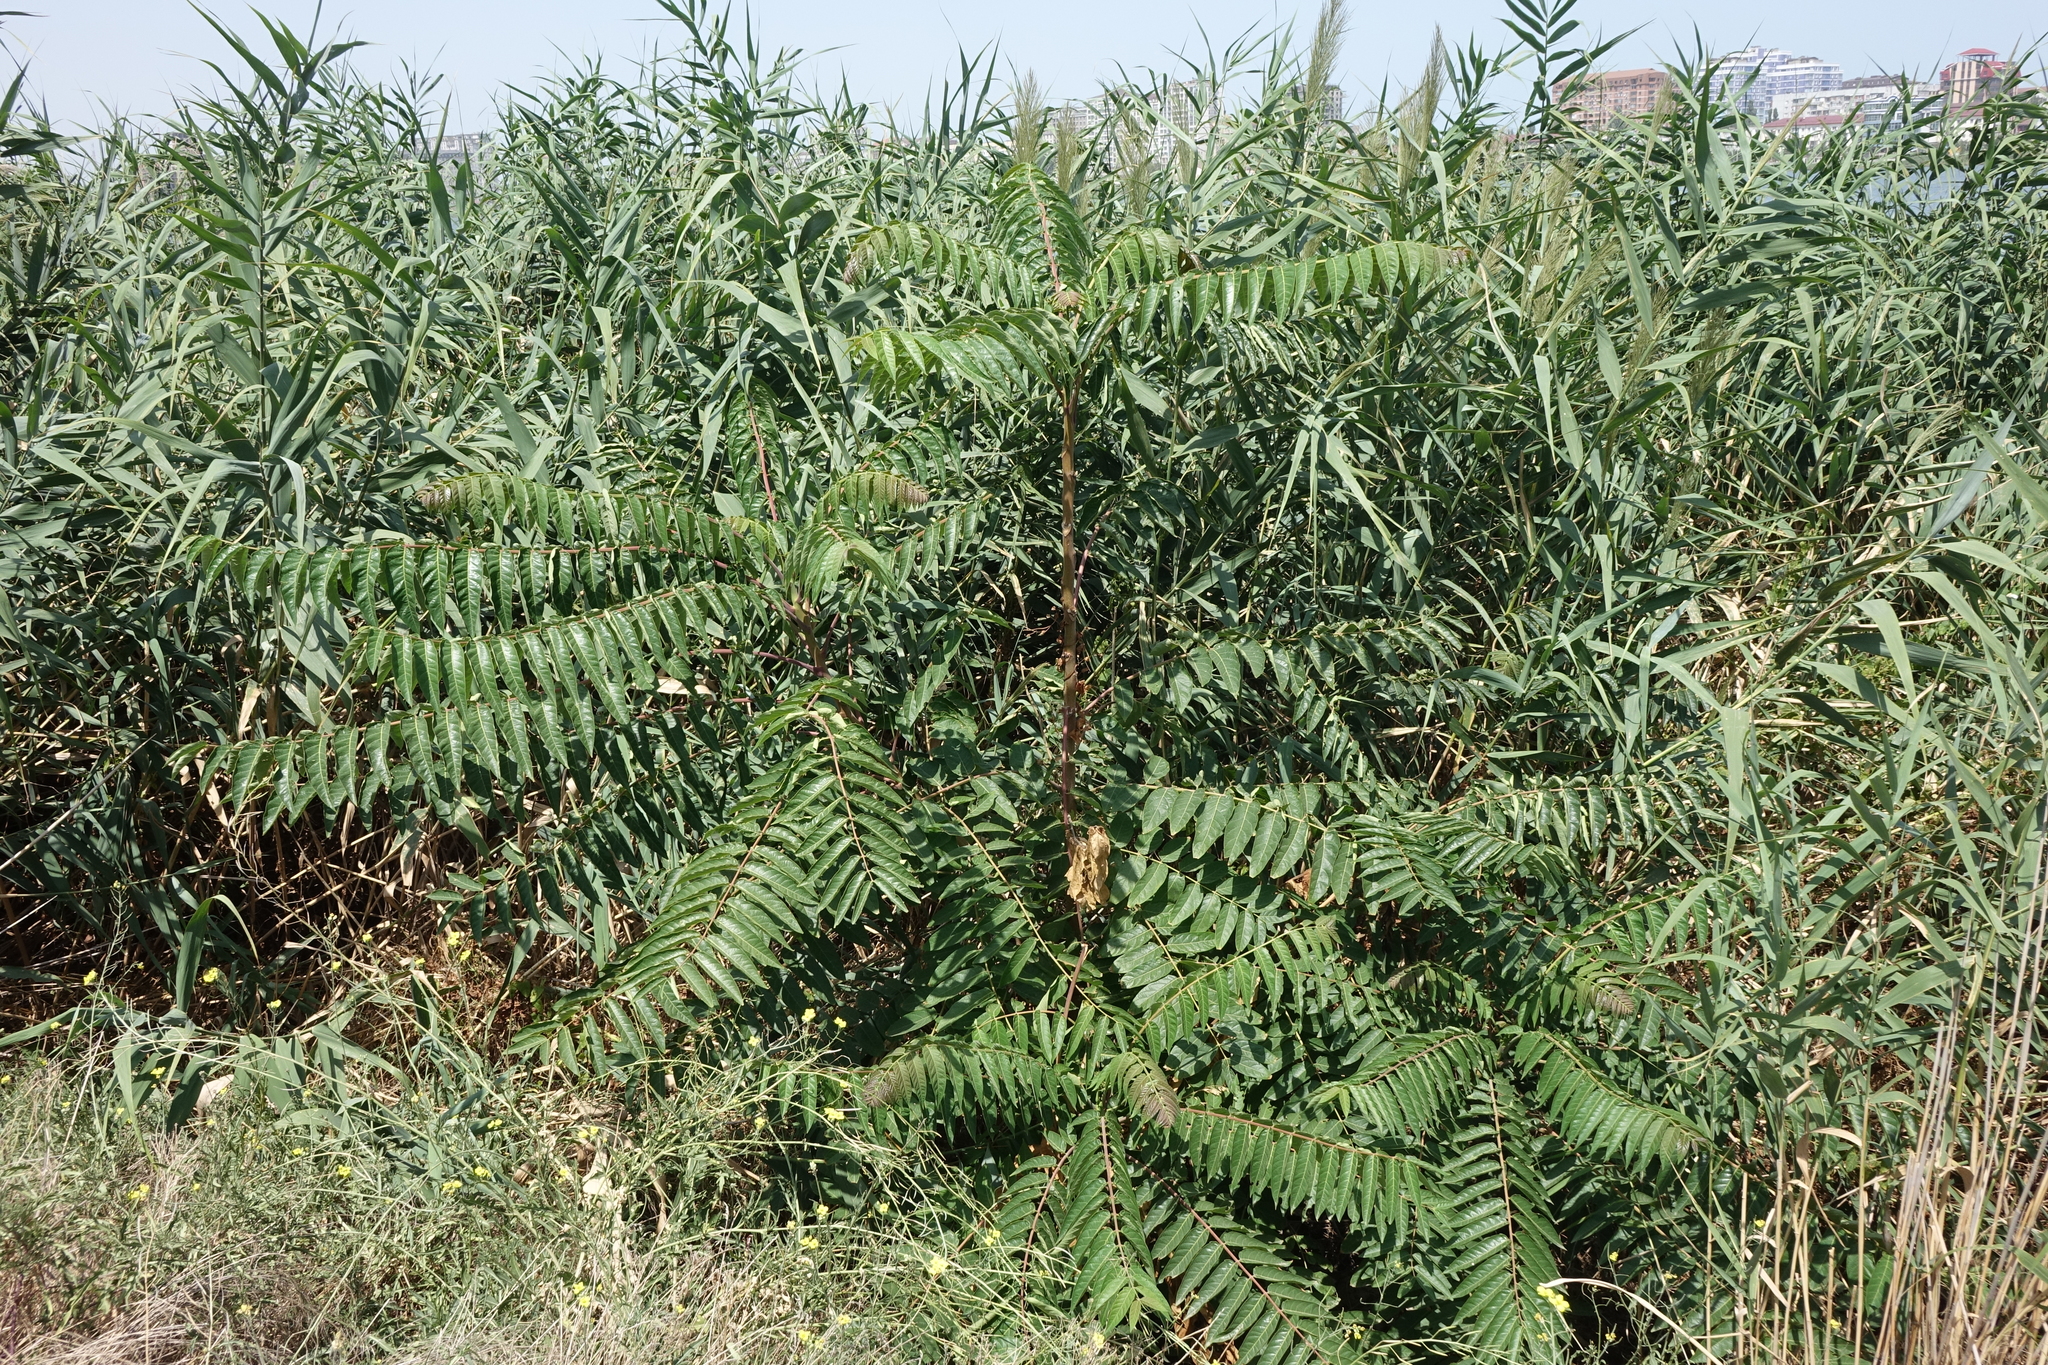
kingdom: Plantae
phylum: Tracheophyta
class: Magnoliopsida
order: Sapindales
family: Simaroubaceae
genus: Ailanthus
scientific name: Ailanthus altissima
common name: Tree-of-heaven
